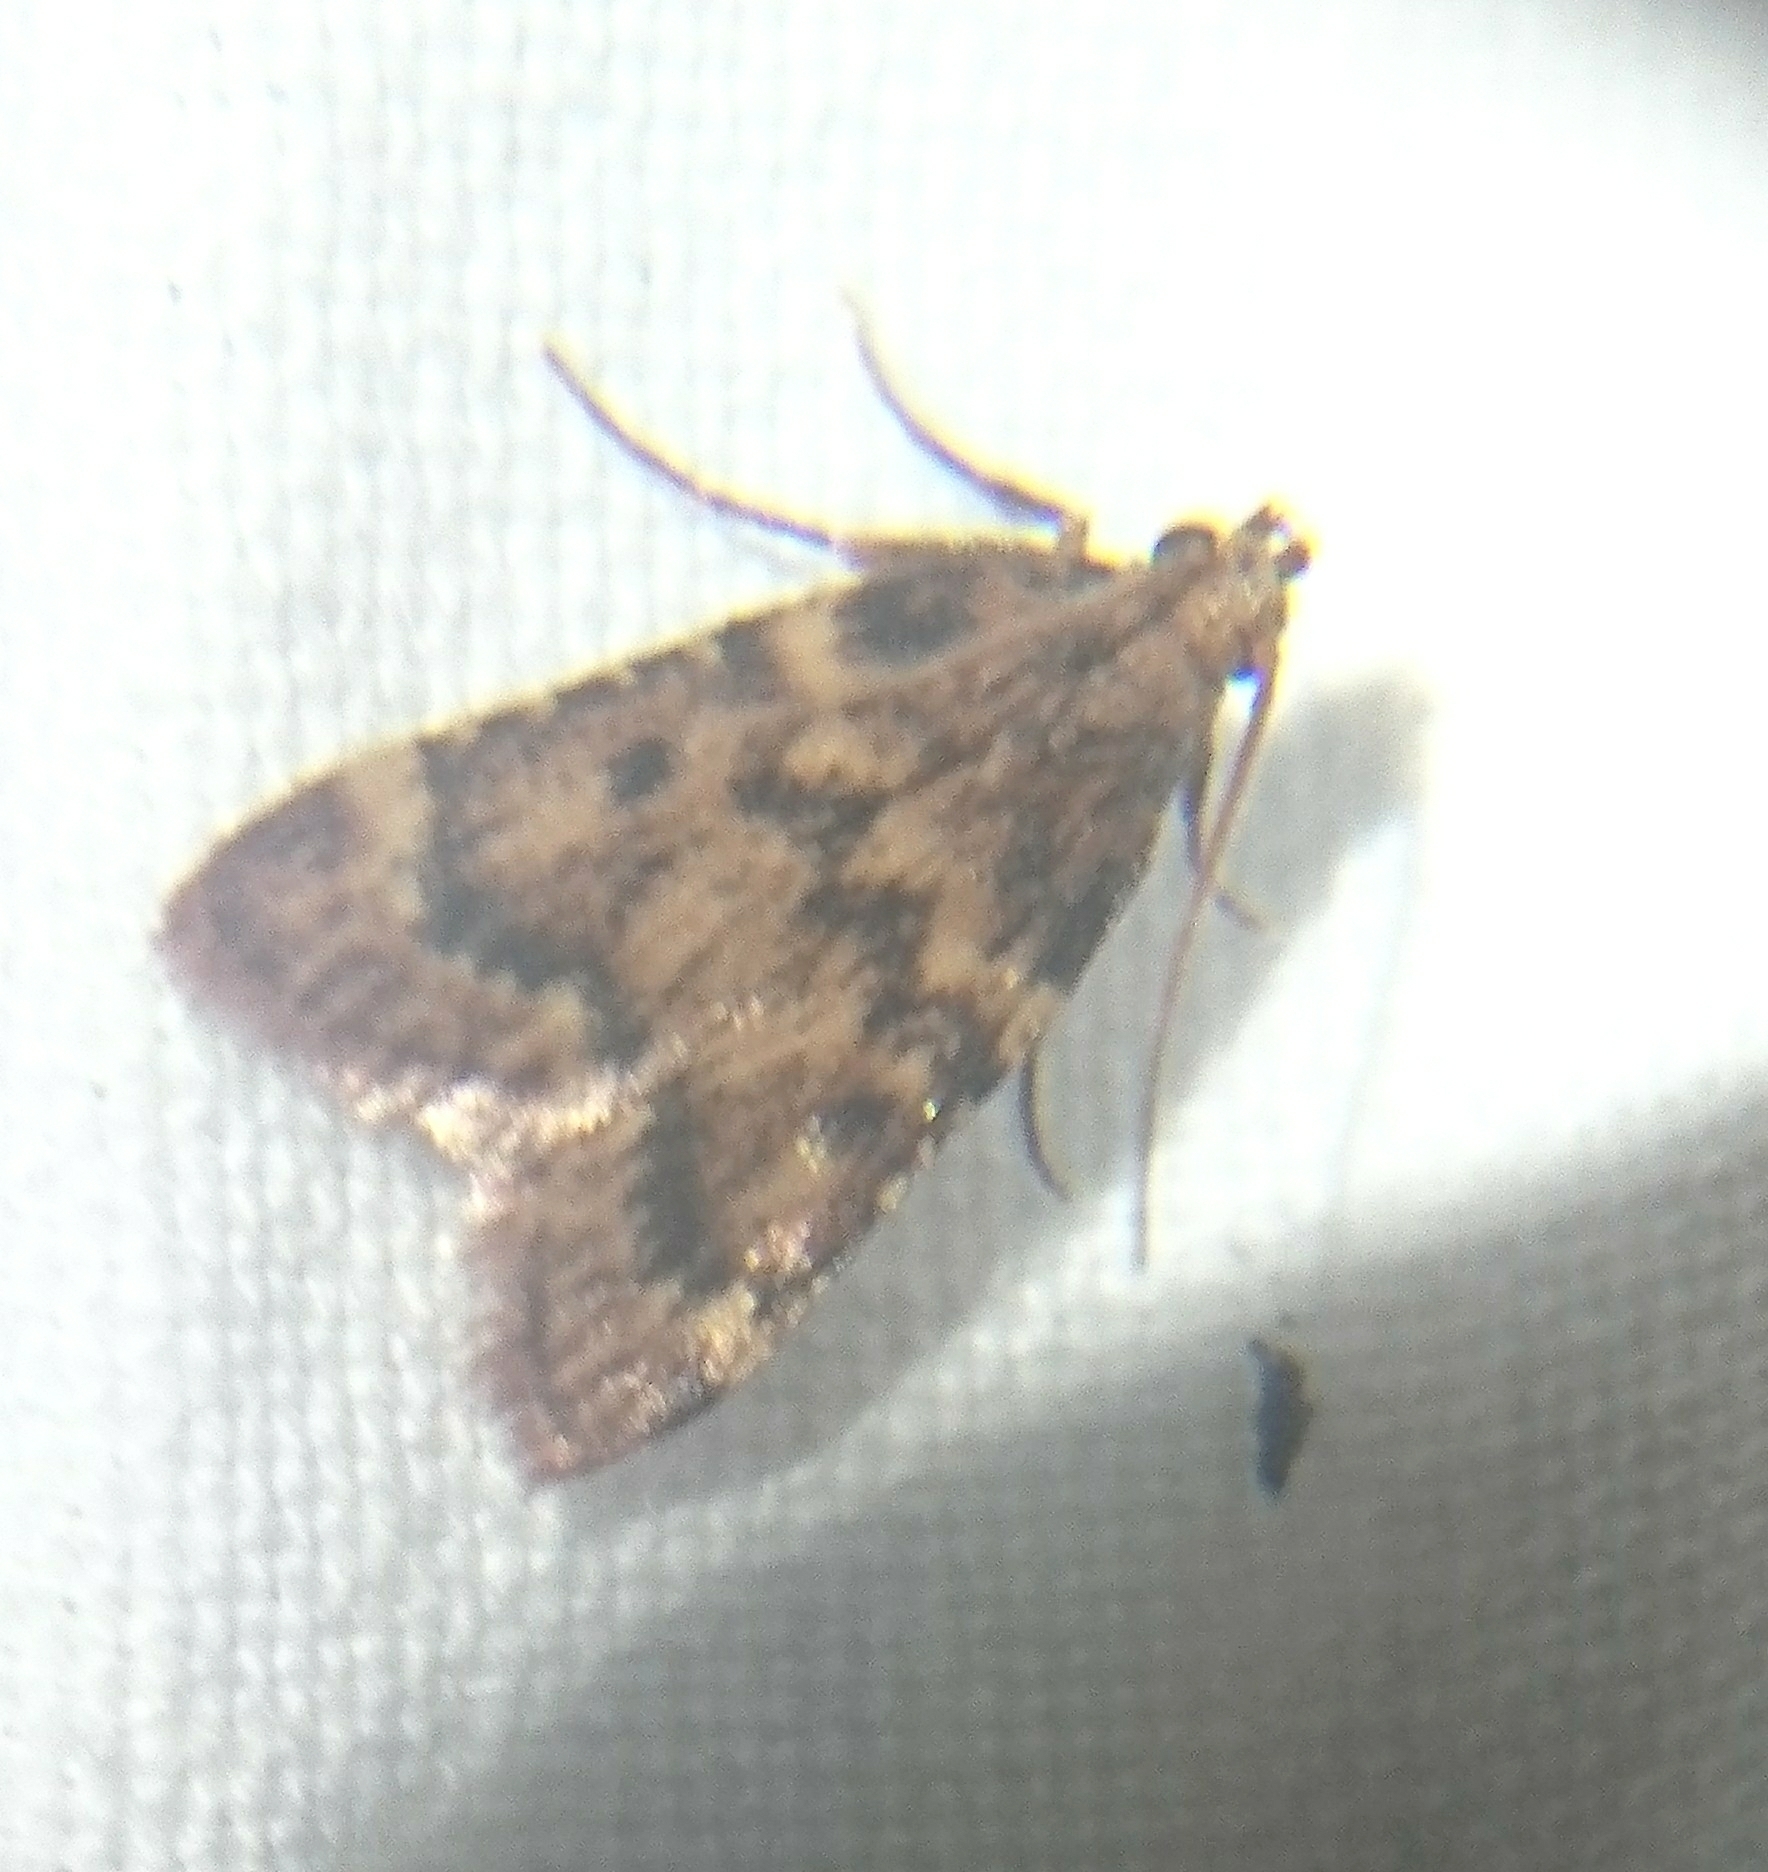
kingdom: Animalia
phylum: Arthropoda
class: Insecta
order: Lepidoptera
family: Pyralidae
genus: Aglossa
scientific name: Aglossa disciferalis
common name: Pink-masked pyralid moth
